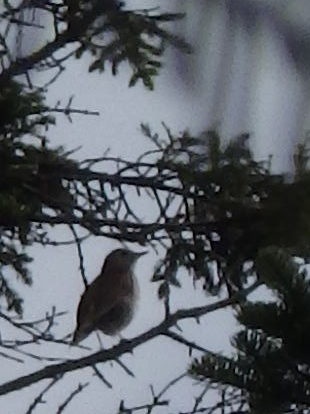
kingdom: Animalia
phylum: Chordata
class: Aves
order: Passeriformes
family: Turdidae
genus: Catharus
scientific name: Catharus guttatus
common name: Hermit thrush
